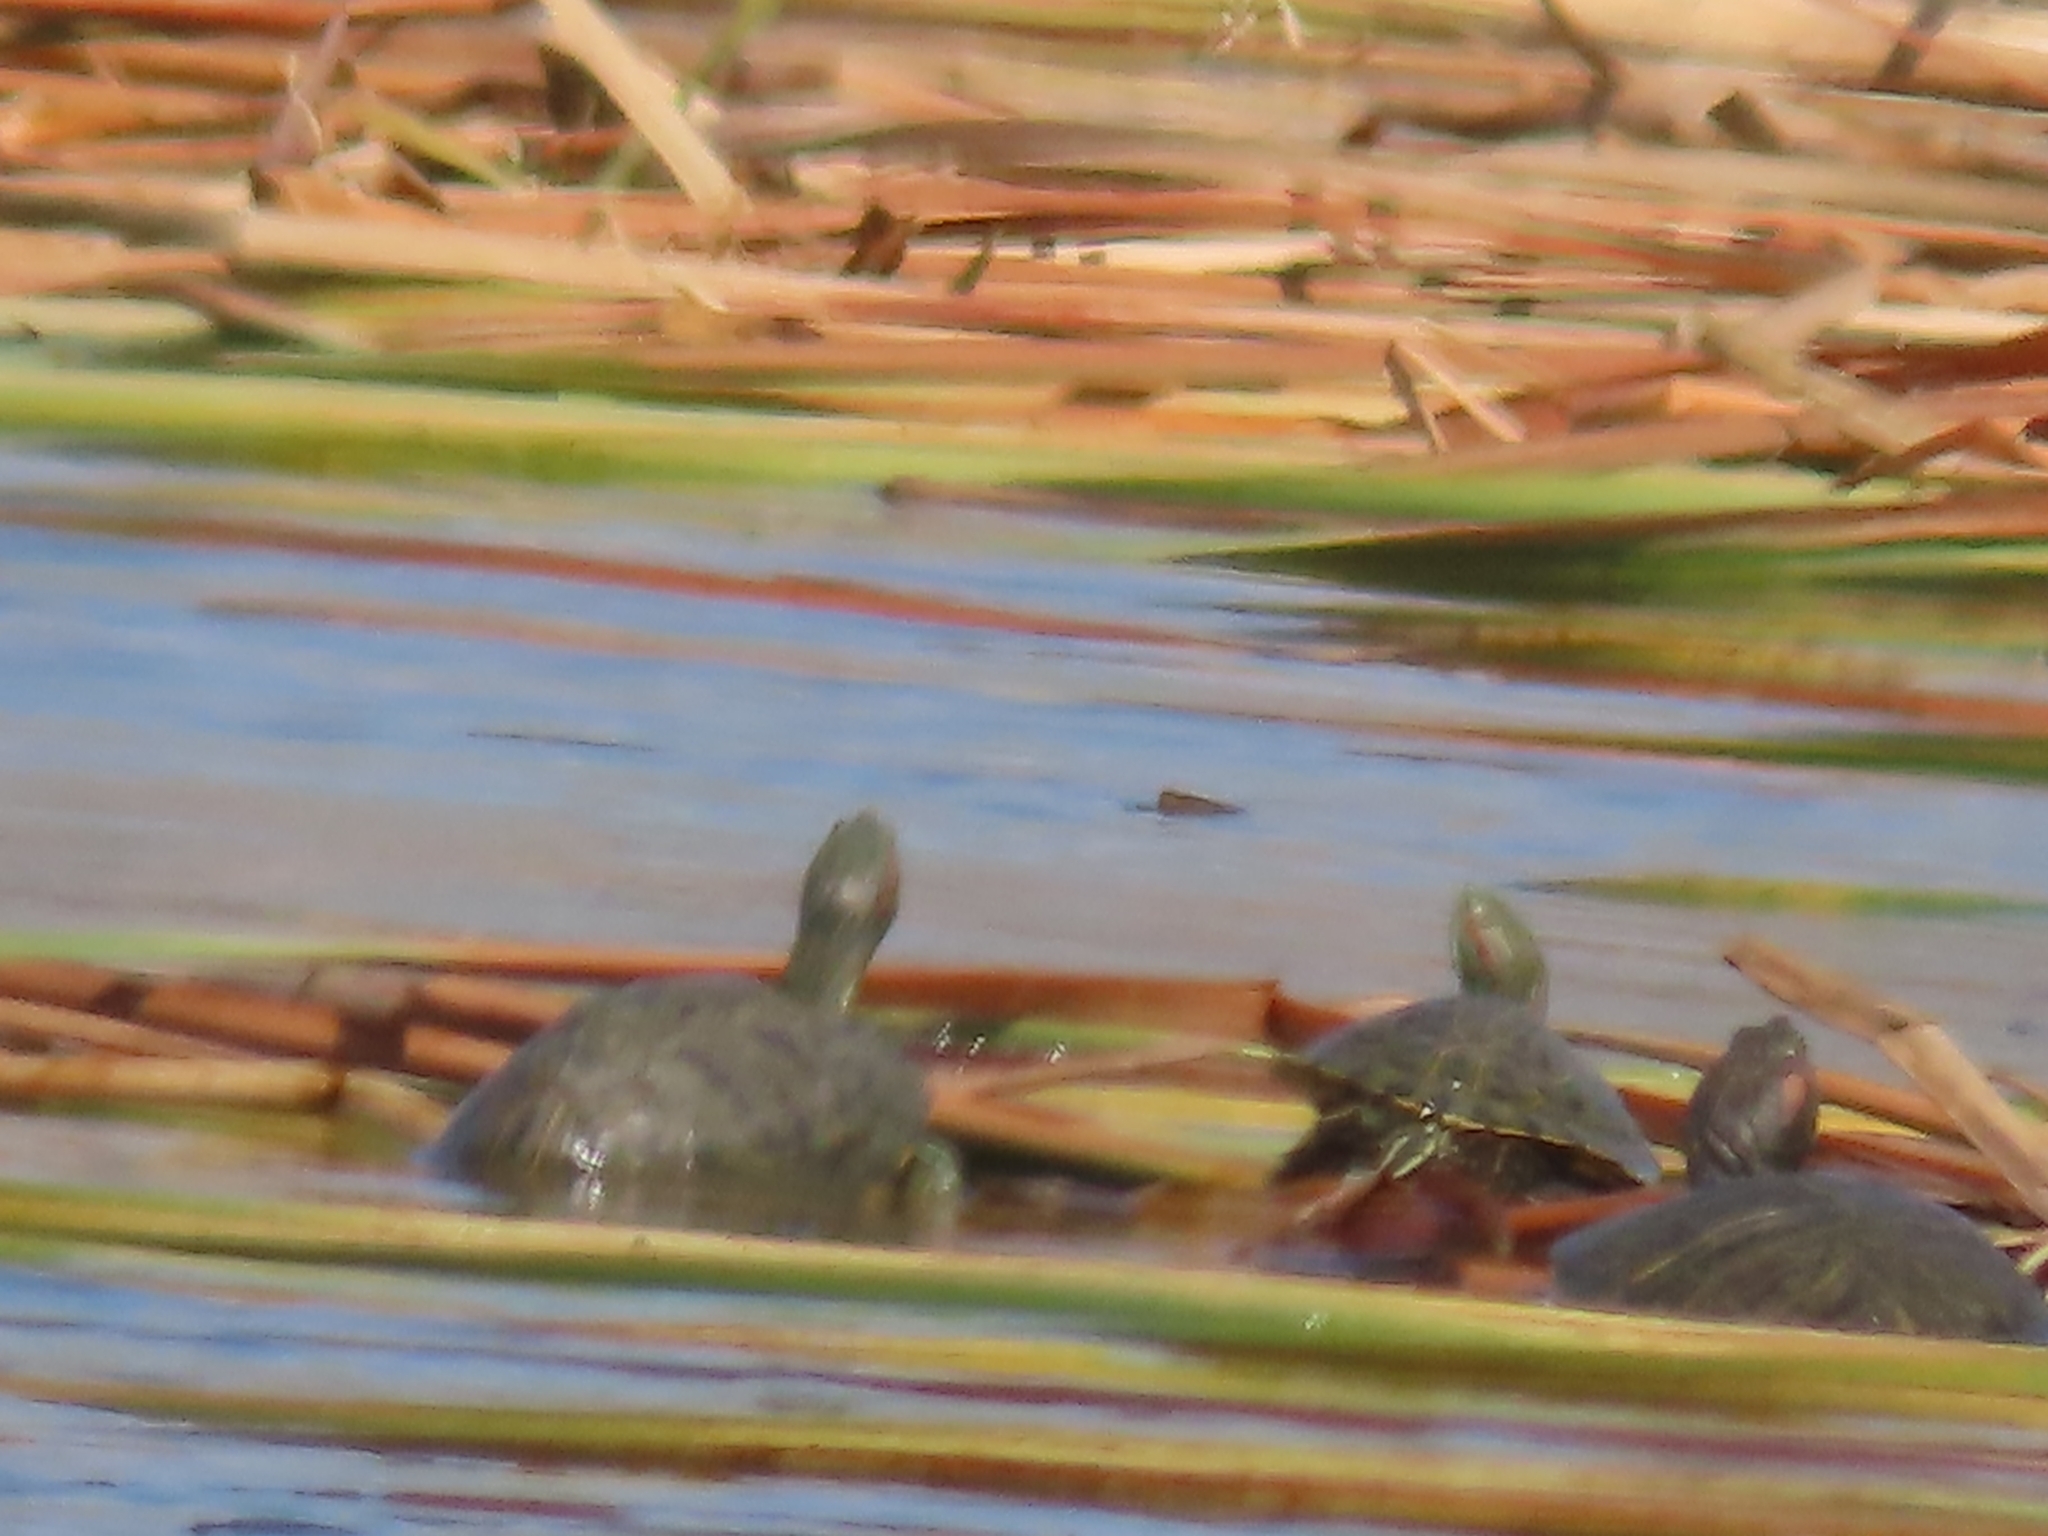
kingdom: Animalia
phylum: Chordata
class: Testudines
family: Emydidae
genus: Trachemys
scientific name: Trachemys scripta
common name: Slider
